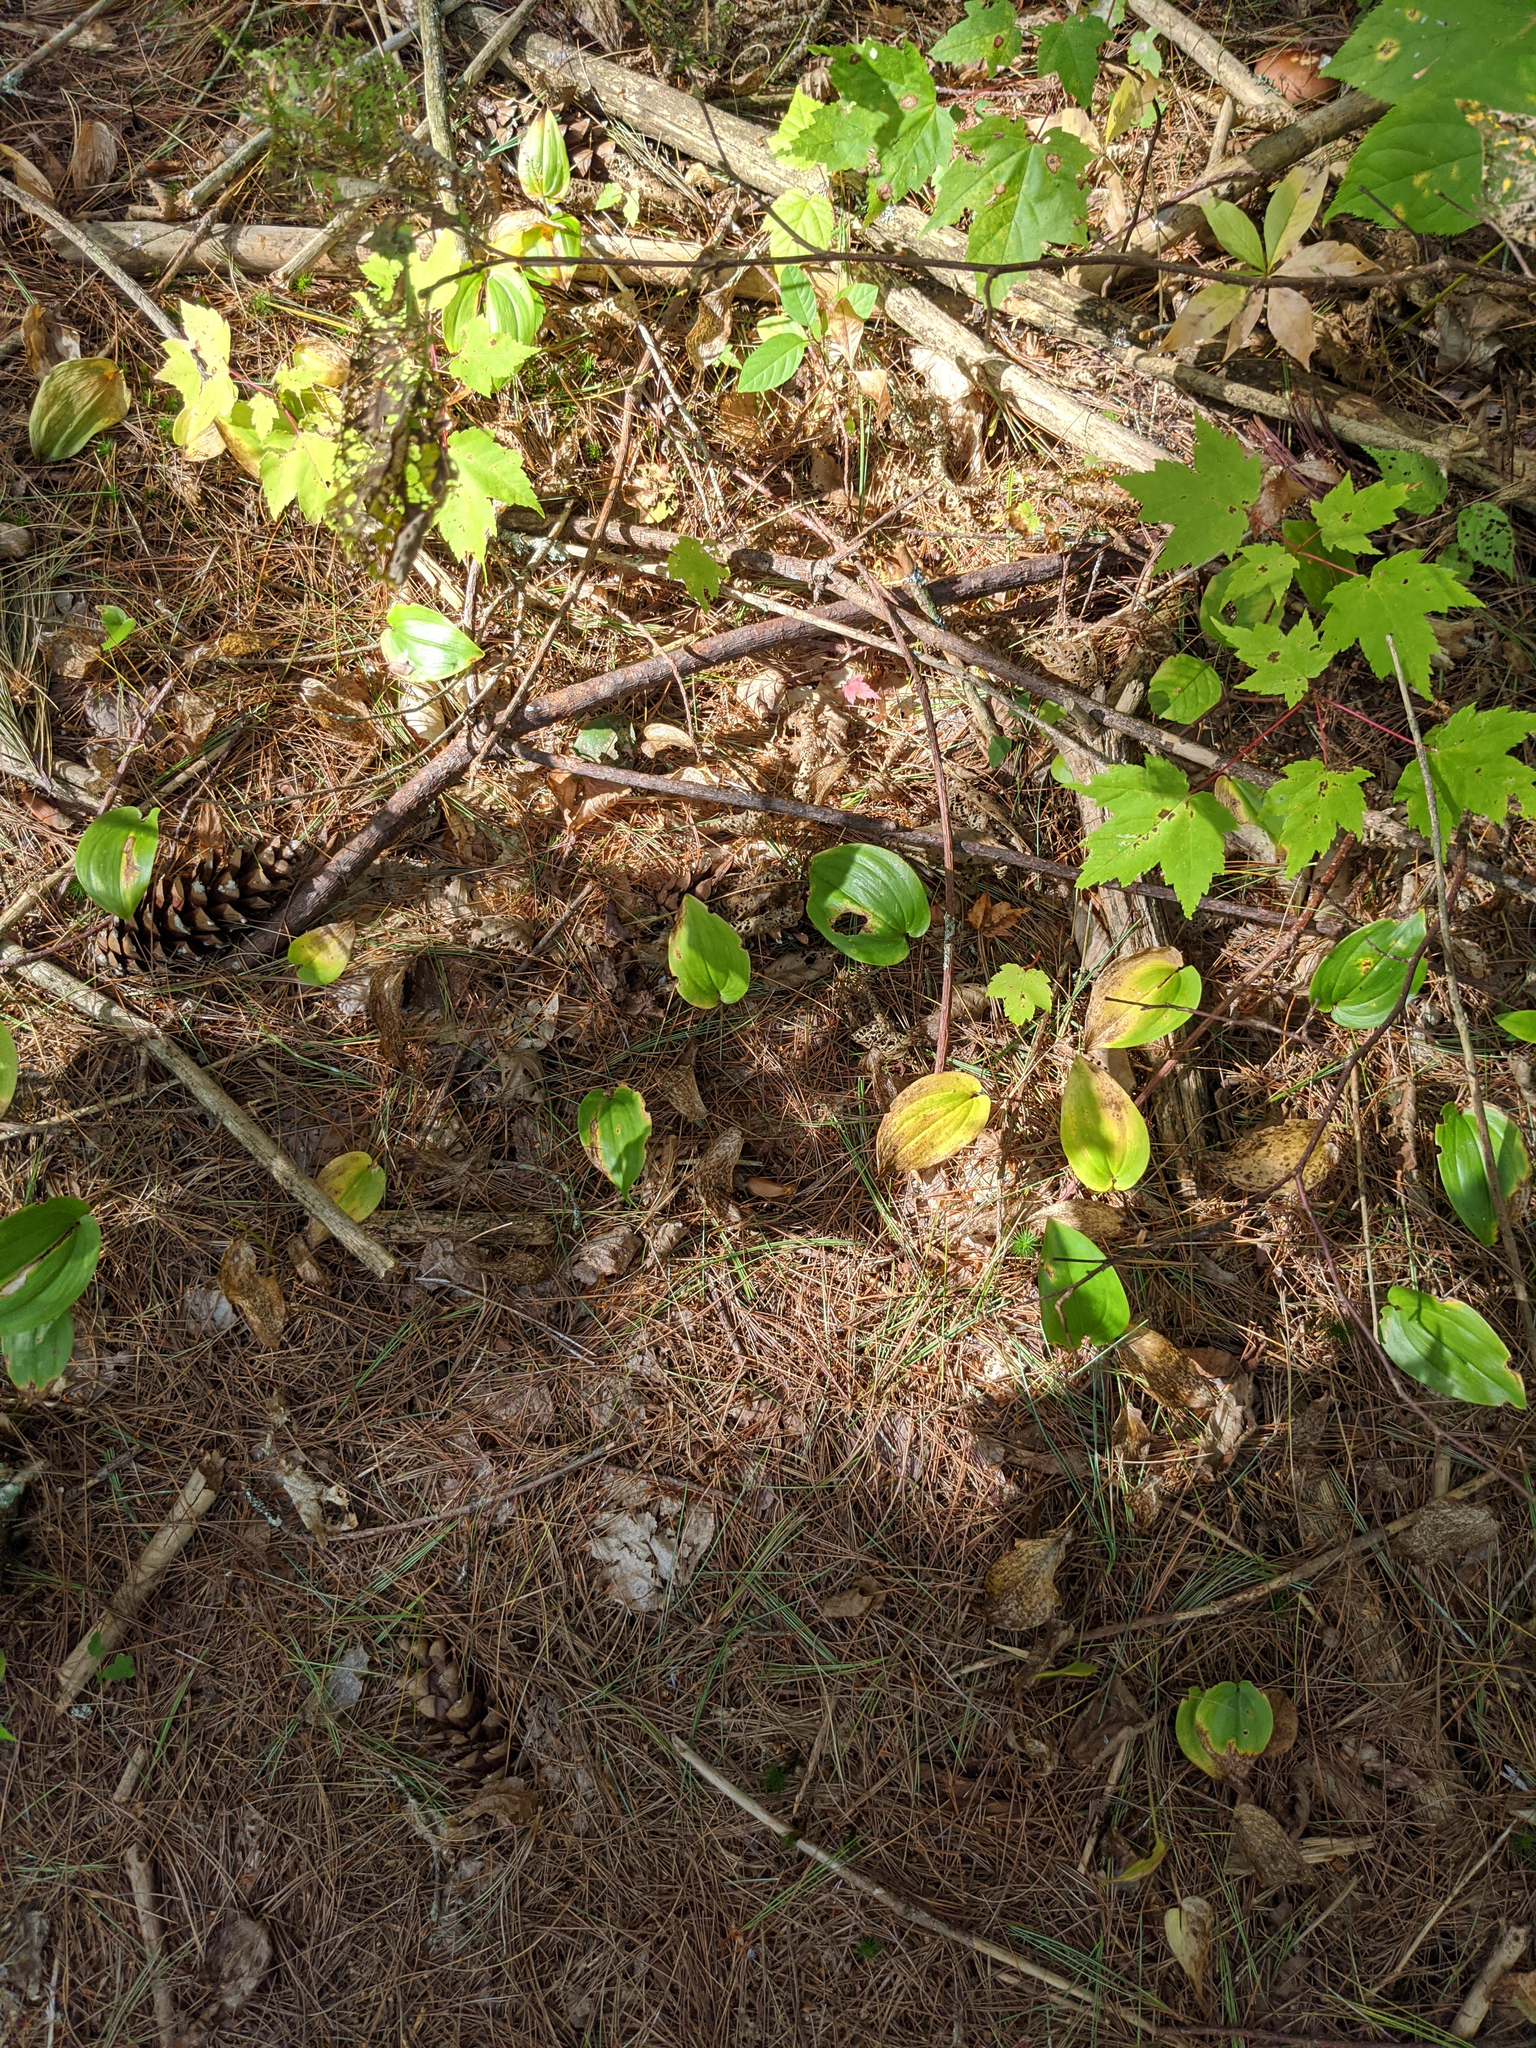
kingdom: Plantae
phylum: Tracheophyta
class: Liliopsida
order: Asparagales
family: Asparagaceae
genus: Maianthemum
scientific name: Maianthemum canadense
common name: False lily-of-the-valley
